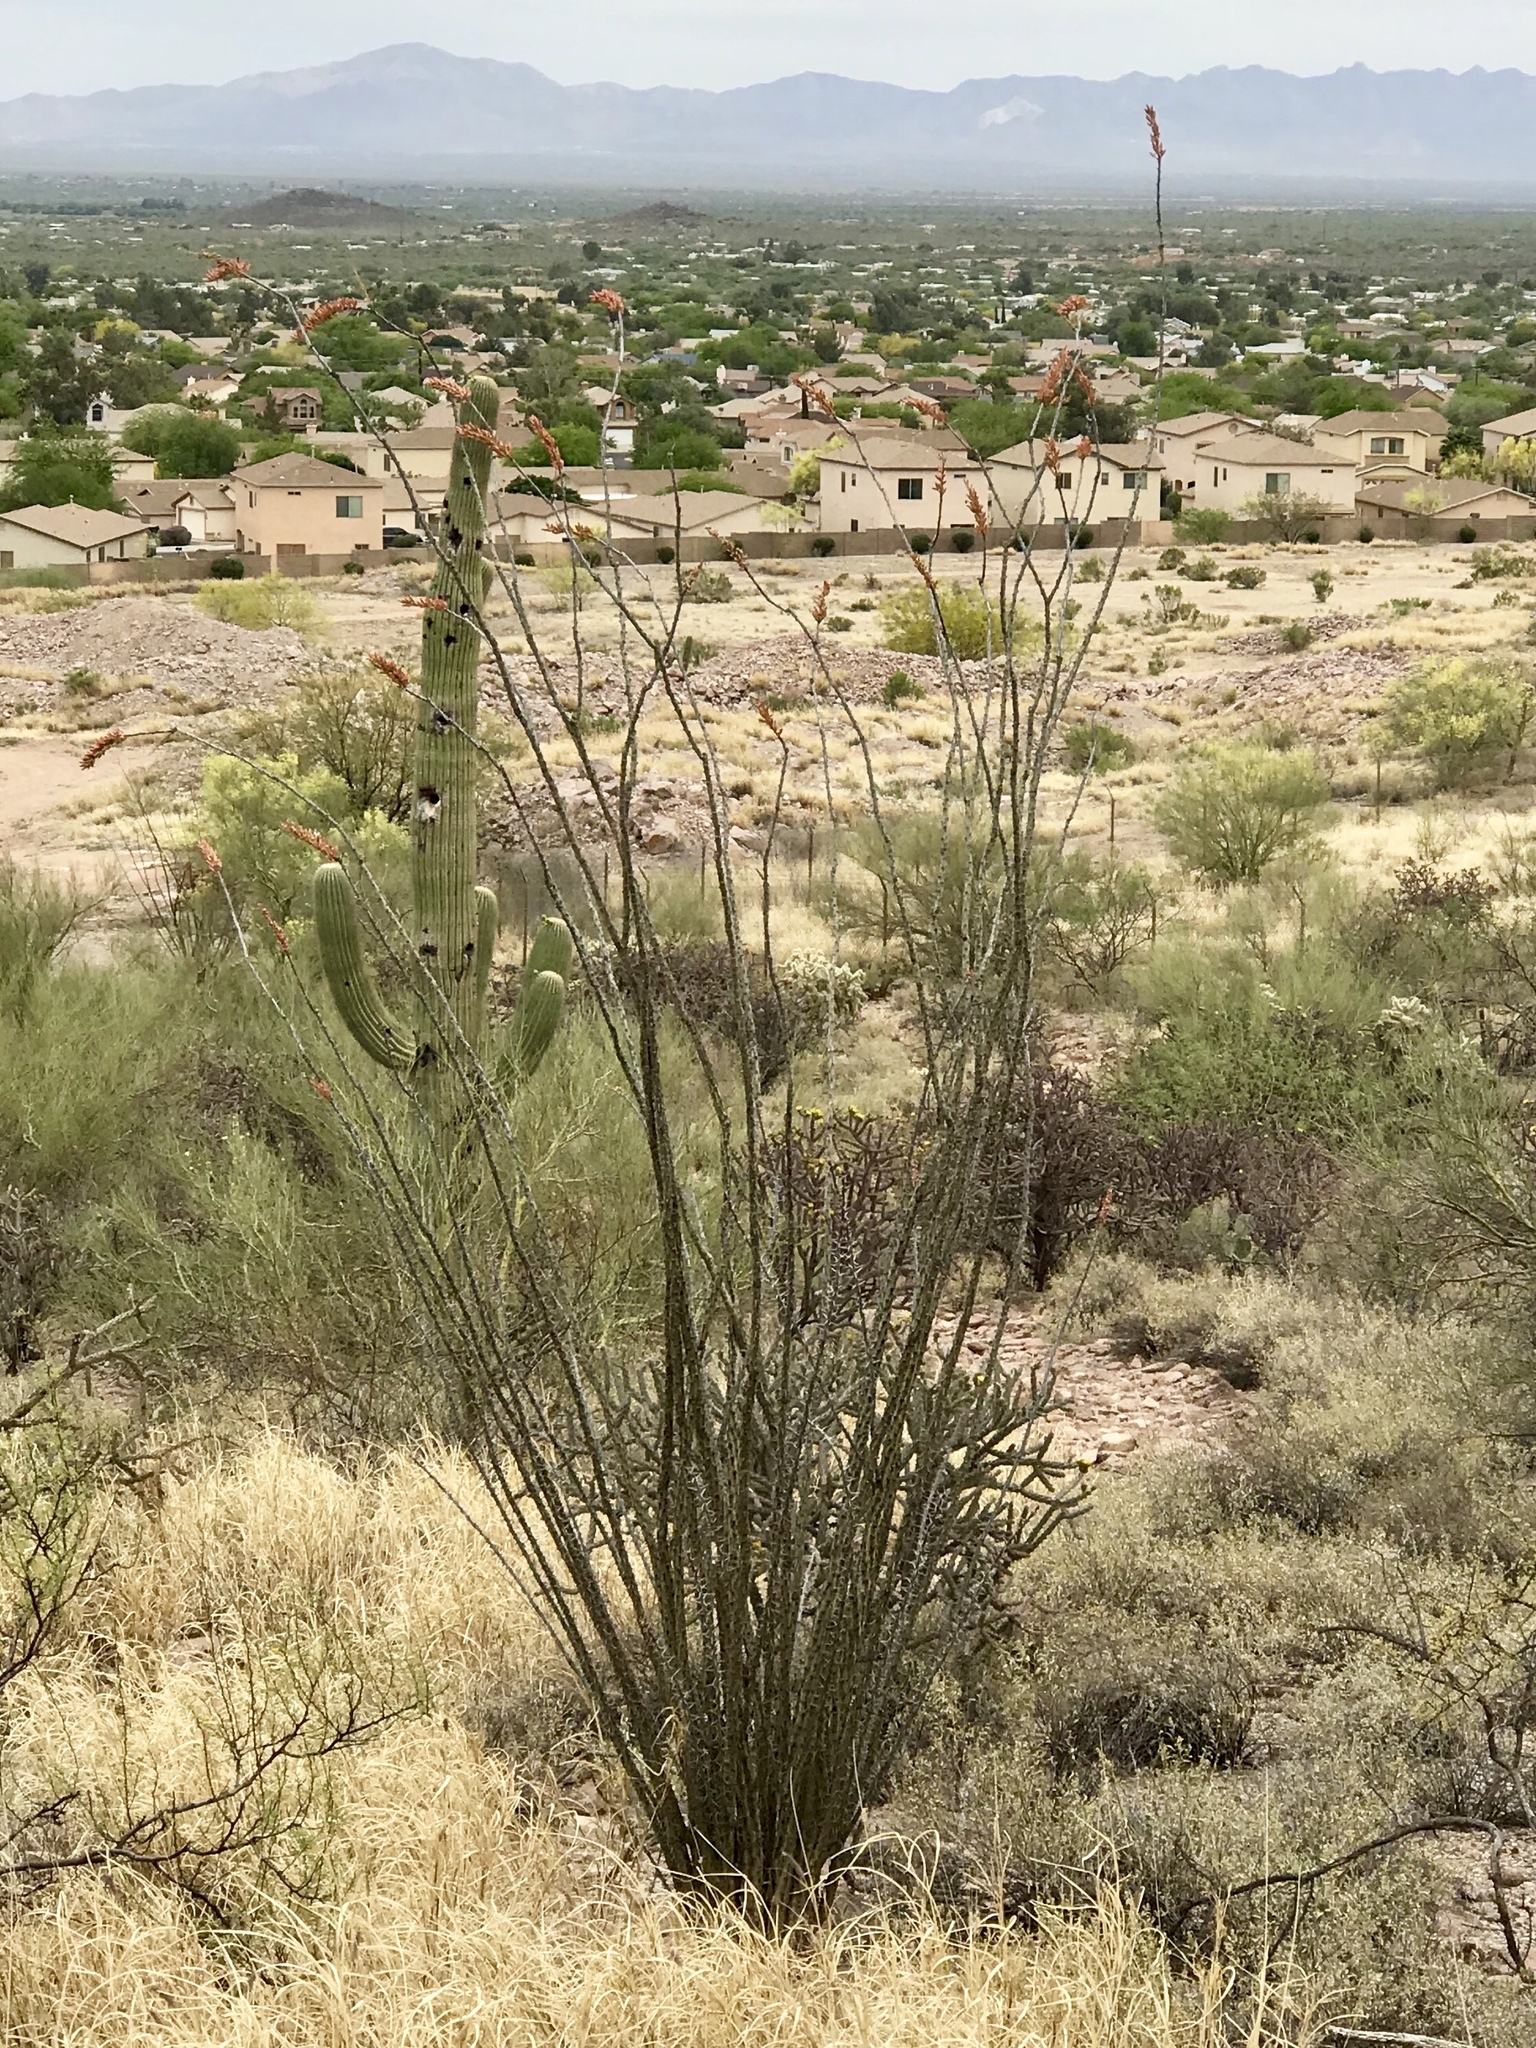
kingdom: Plantae
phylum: Tracheophyta
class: Magnoliopsida
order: Ericales
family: Fouquieriaceae
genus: Fouquieria
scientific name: Fouquieria splendens
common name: Vine-cactus
